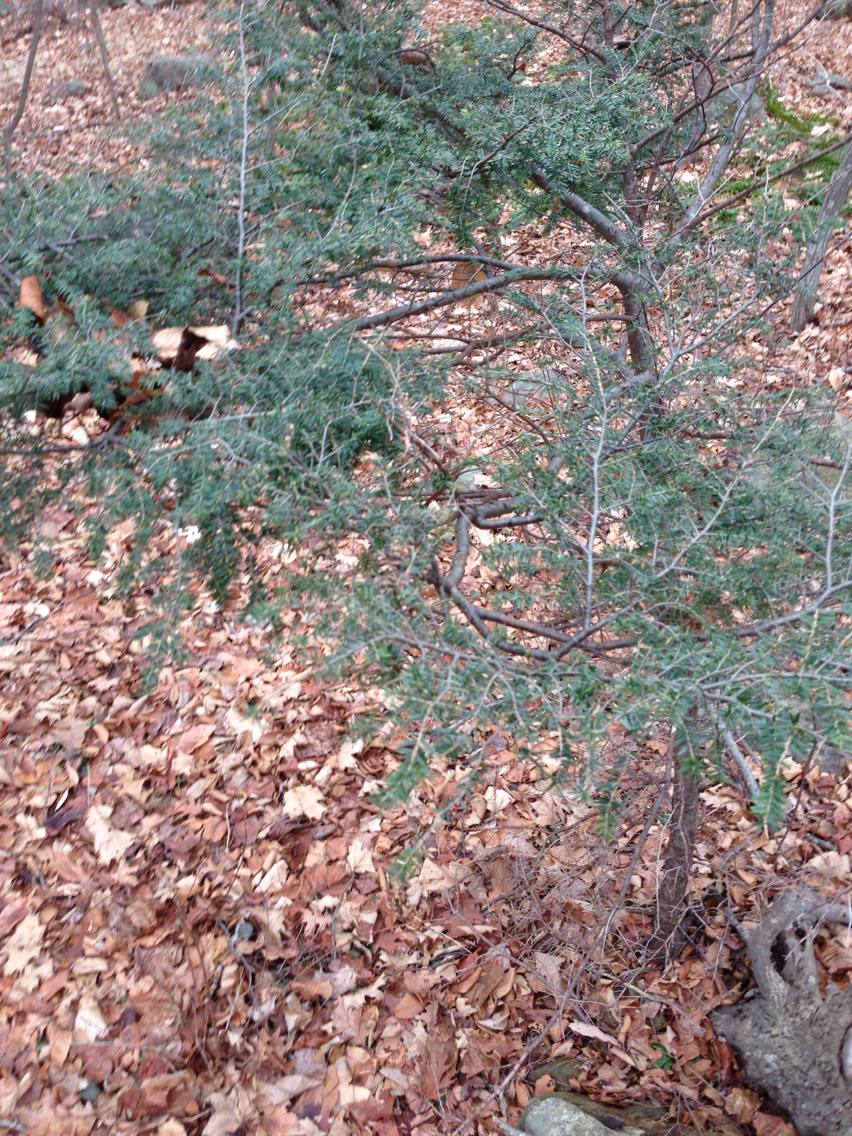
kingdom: Plantae
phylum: Tracheophyta
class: Pinopsida
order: Pinales
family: Pinaceae
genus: Tsuga
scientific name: Tsuga canadensis
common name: Eastern hemlock
